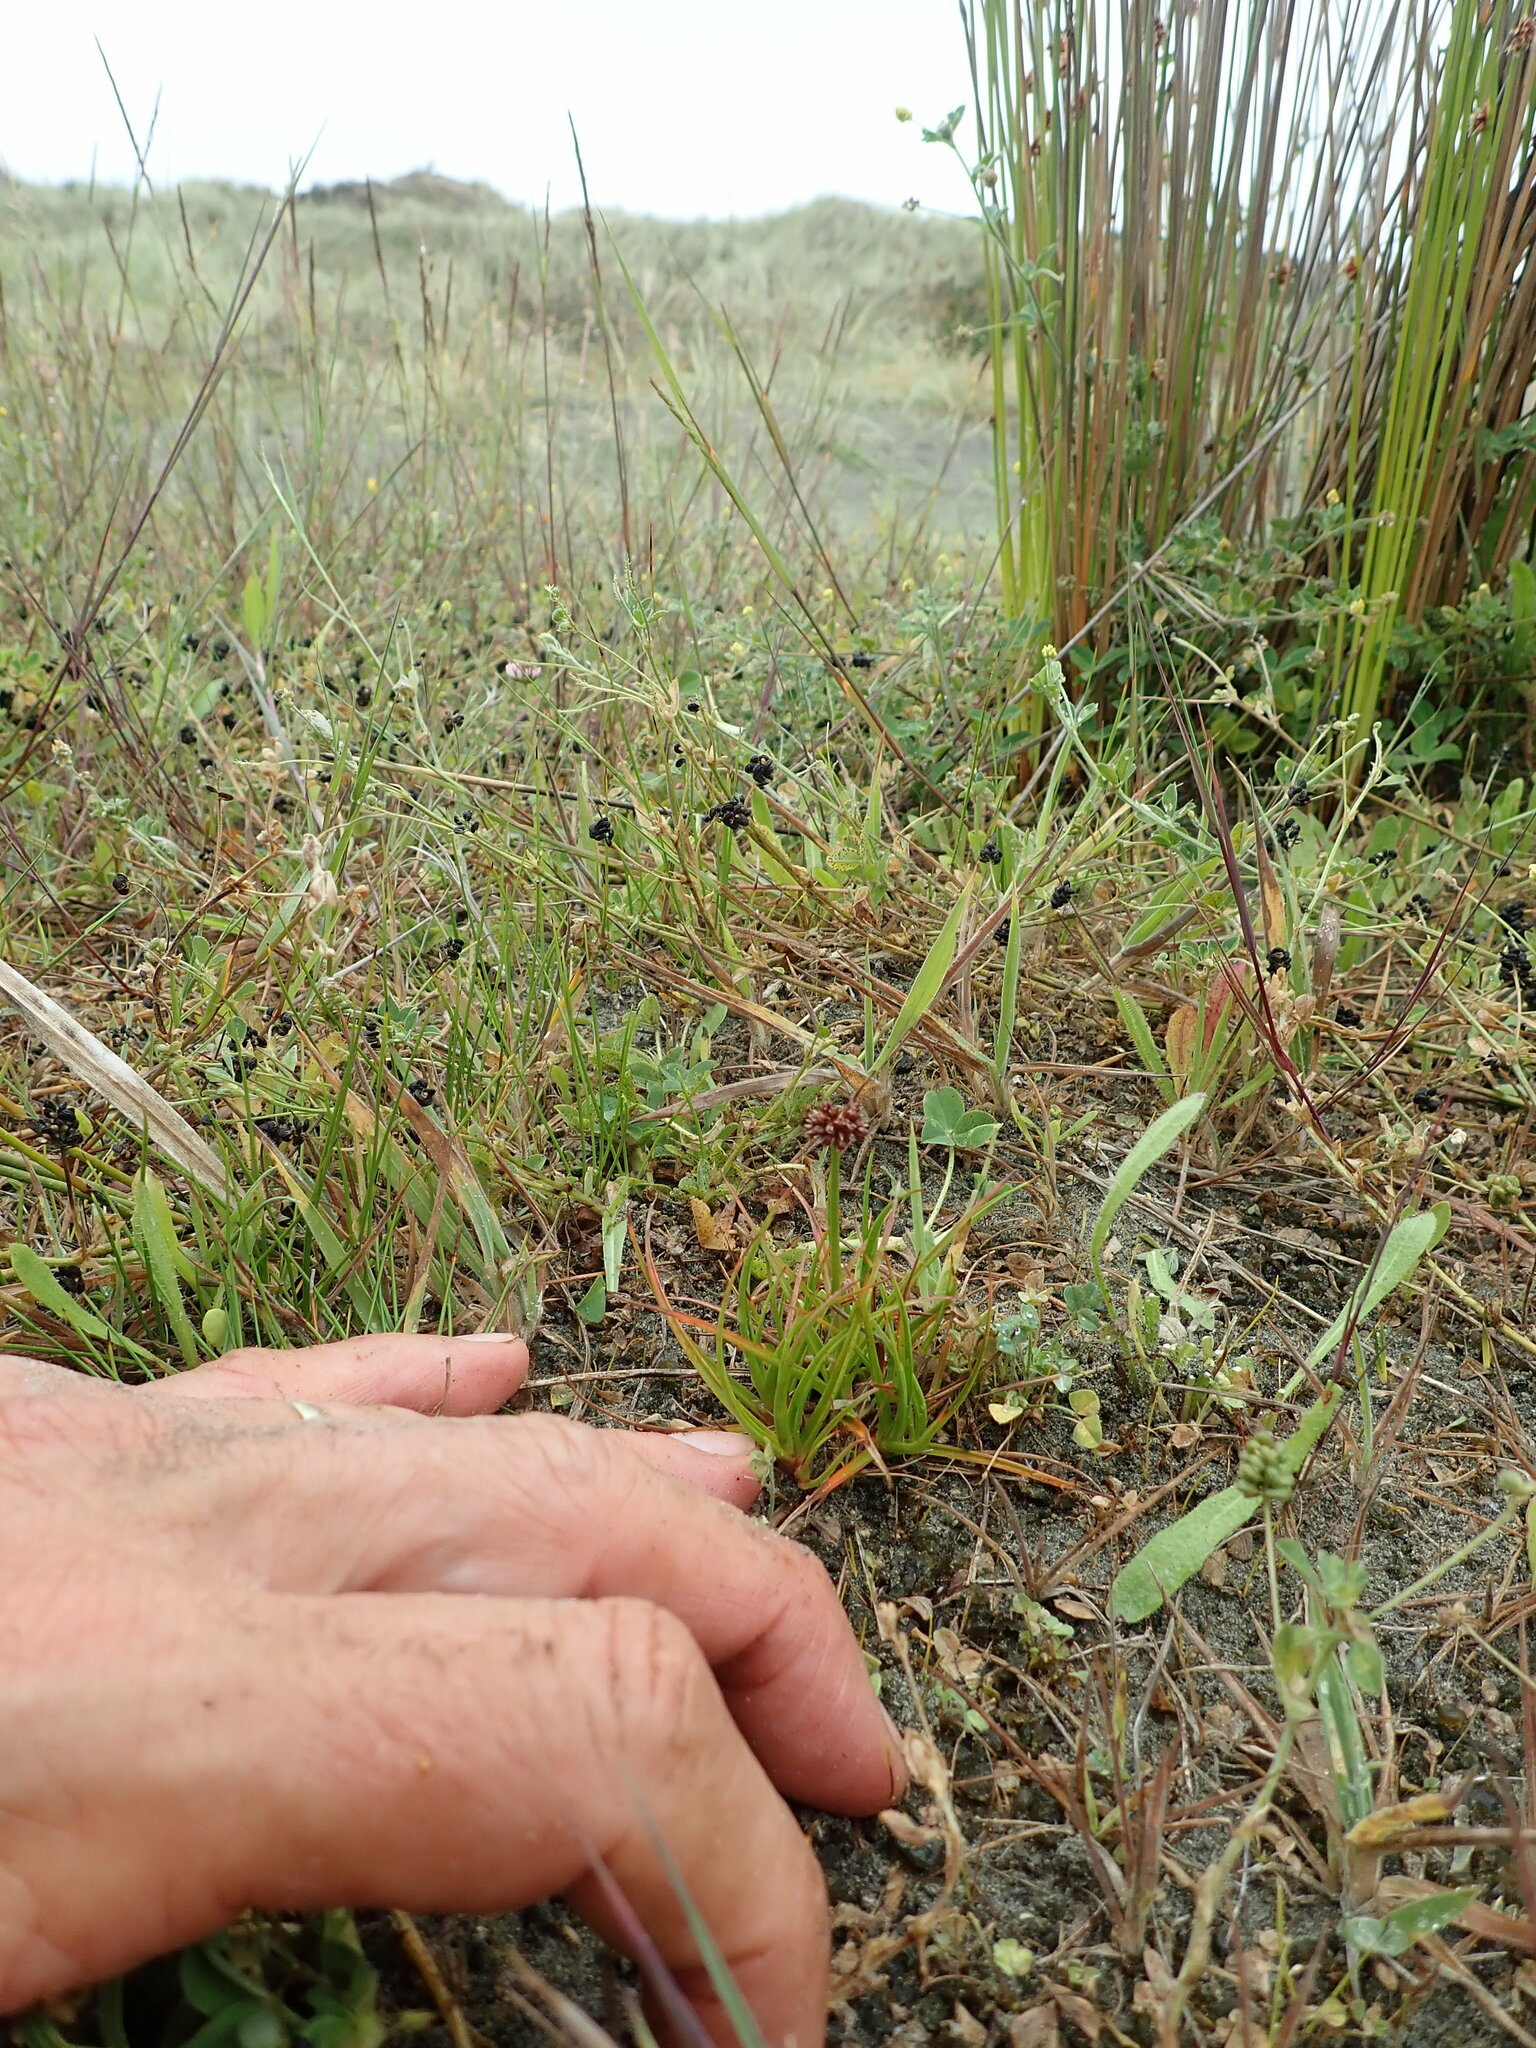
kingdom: Plantae
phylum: Tracheophyta
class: Liliopsida
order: Poales
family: Juncaceae
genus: Juncus
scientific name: Juncus caespiticius
